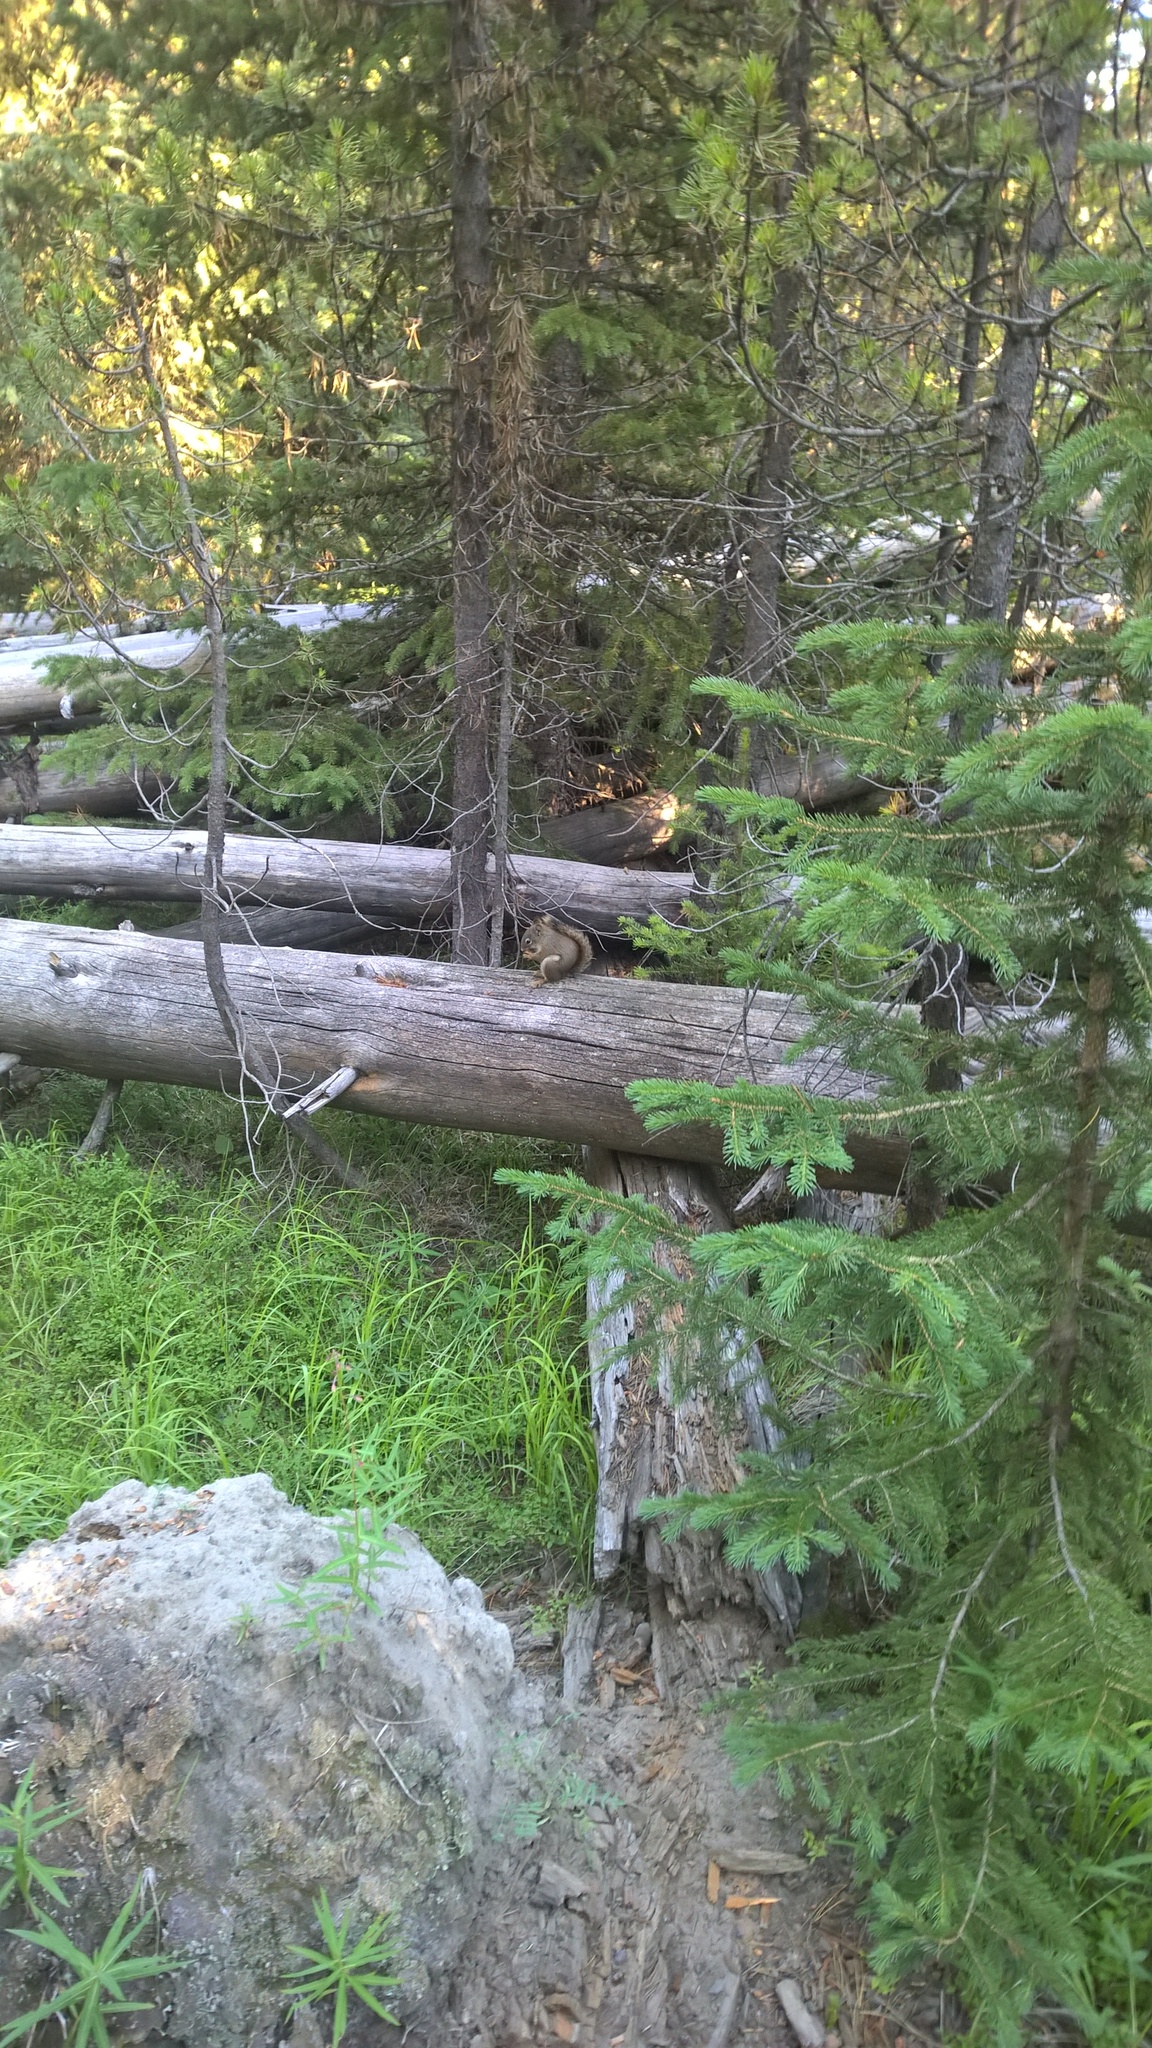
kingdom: Animalia
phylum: Chordata
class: Mammalia
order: Rodentia
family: Sciuridae
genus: Tamiasciurus
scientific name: Tamiasciurus hudsonicus
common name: Red squirrel
